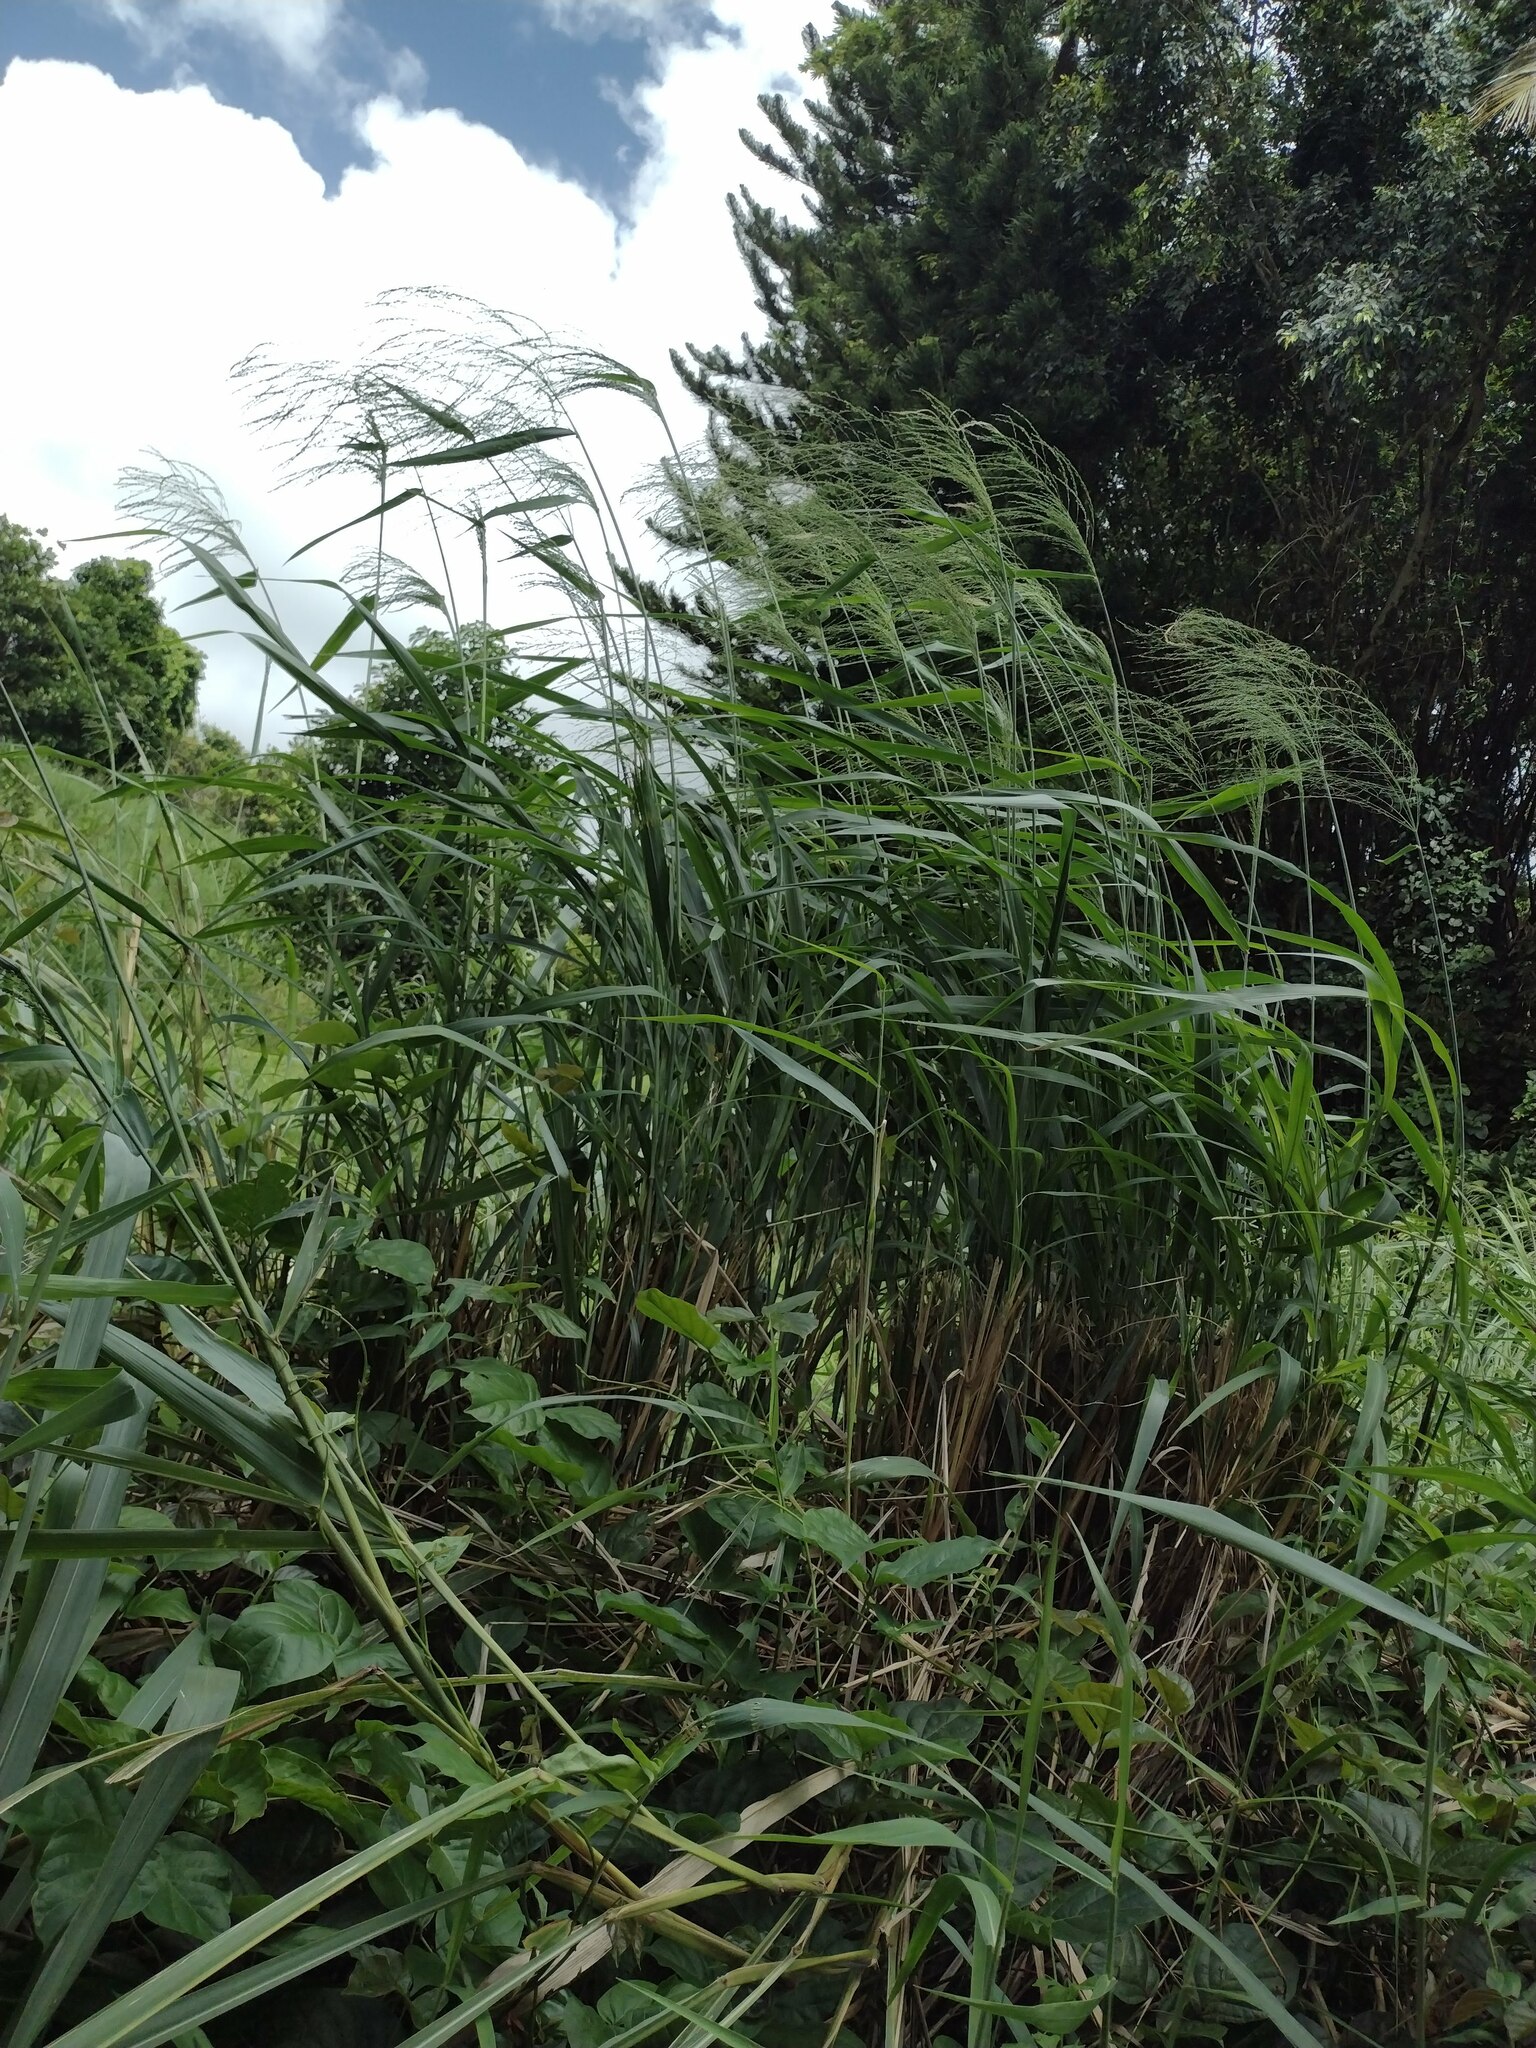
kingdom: Plantae
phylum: Tracheophyta
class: Liliopsida
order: Poales
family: Poaceae
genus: Megathyrsus
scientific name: Megathyrsus maximus
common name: Guineagrass
